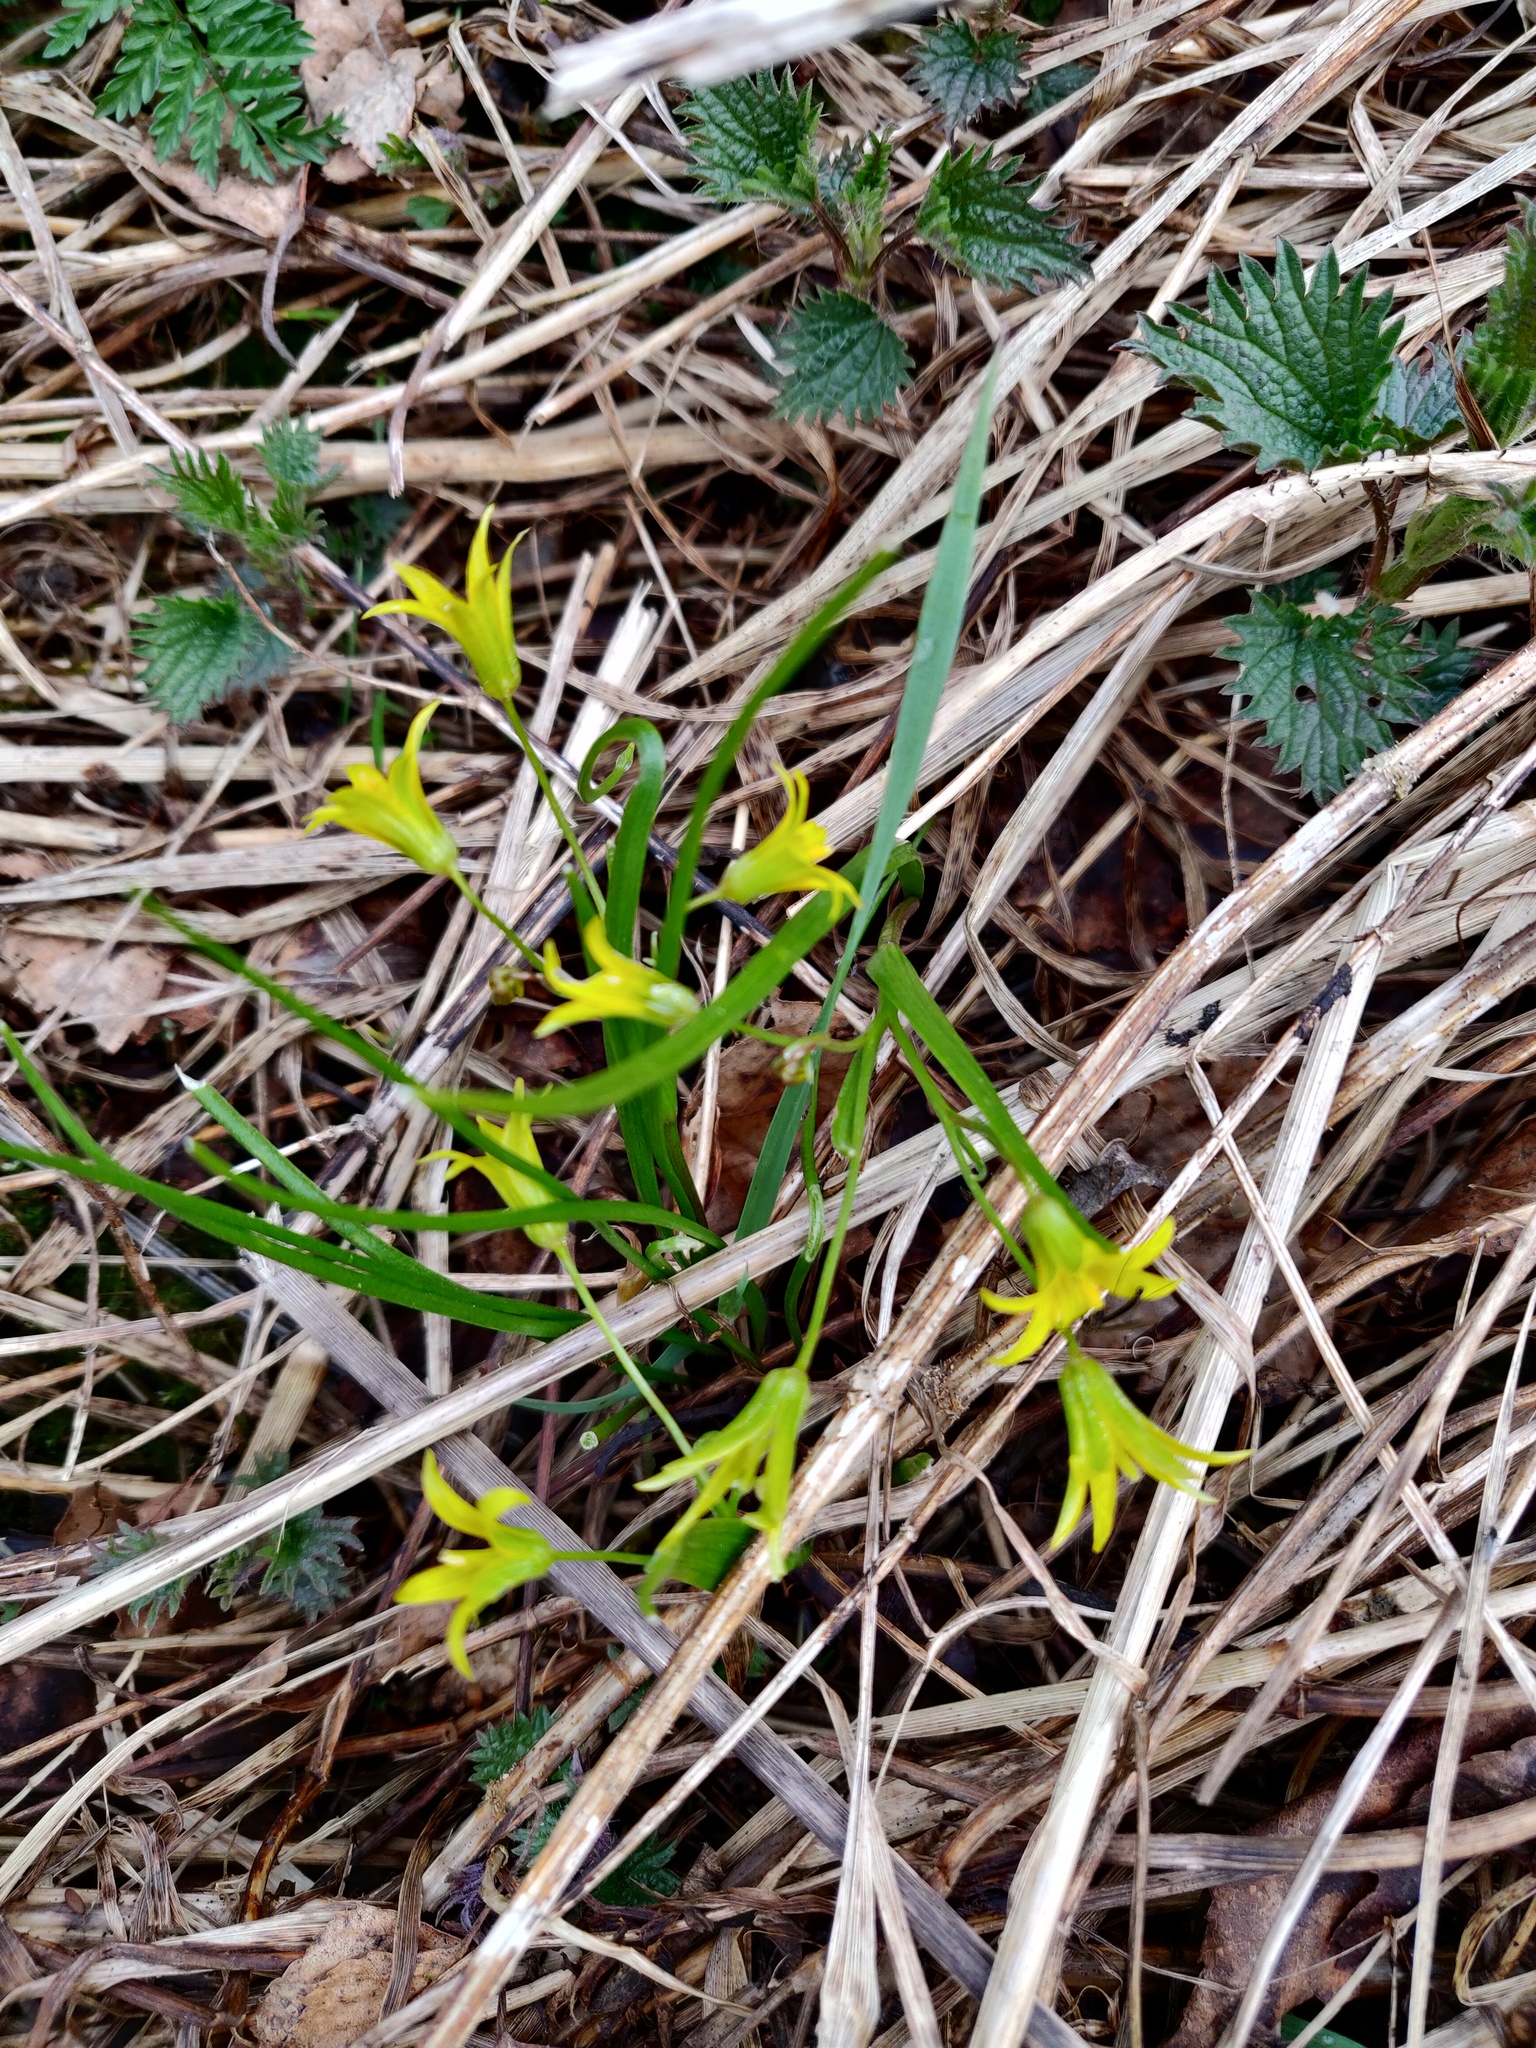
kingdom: Plantae
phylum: Tracheophyta
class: Liliopsida
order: Liliales
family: Liliaceae
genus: Gagea
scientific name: Gagea minima
